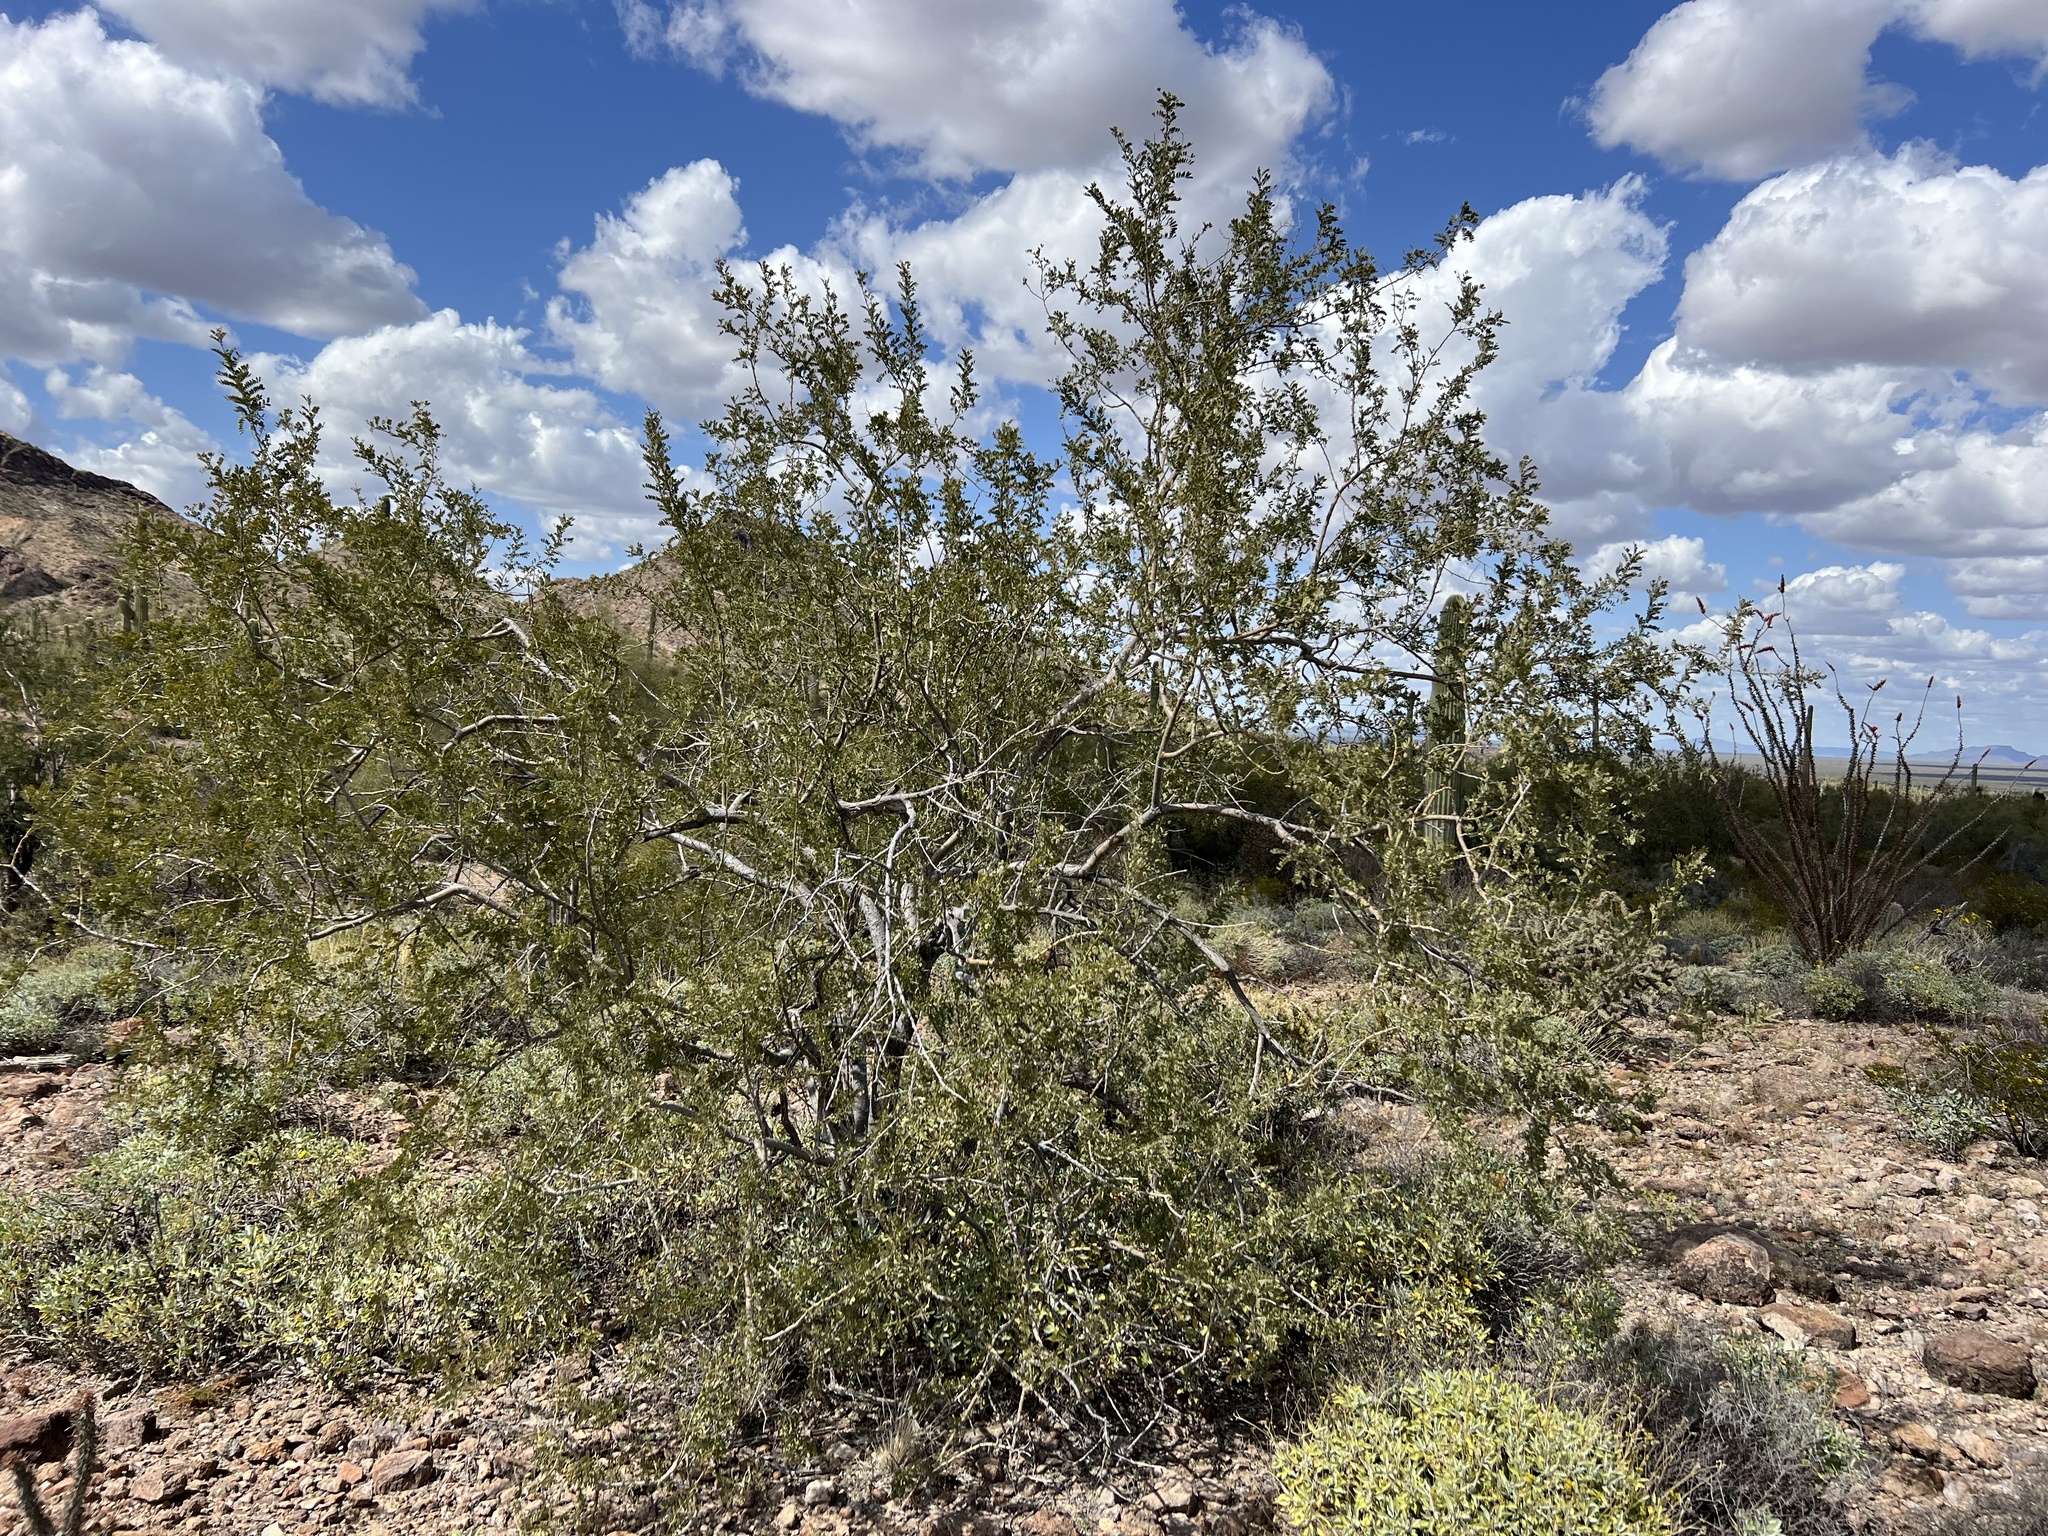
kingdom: Plantae
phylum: Tracheophyta
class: Magnoliopsida
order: Fabales
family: Fabaceae
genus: Olneya
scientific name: Olneya tesota
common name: Desert ironwood
